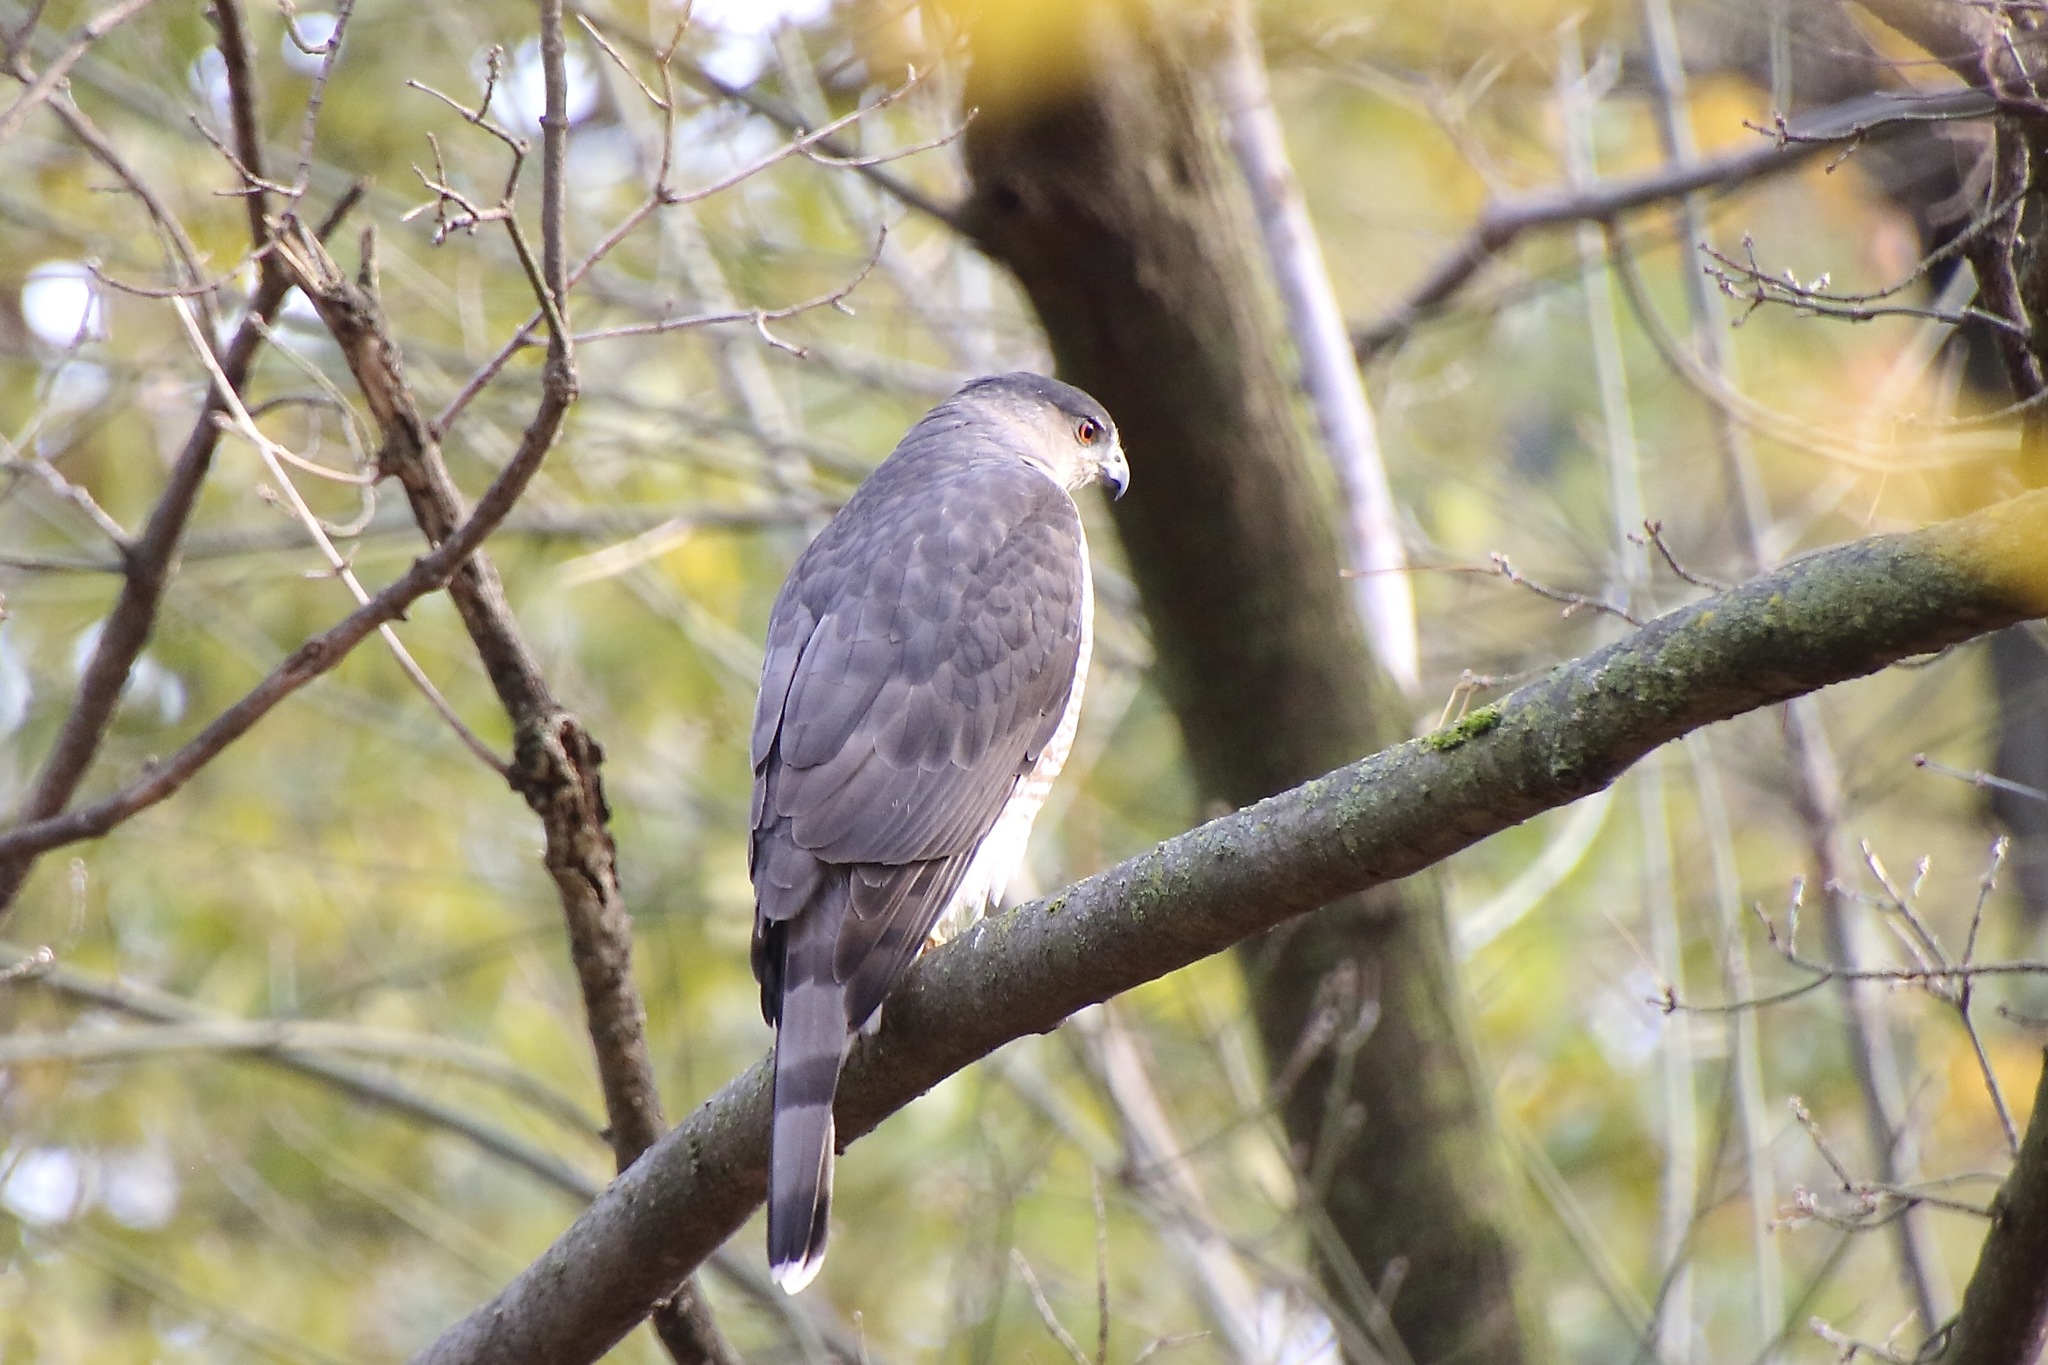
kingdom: Animalia
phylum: Chordata
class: Aves
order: Accipitriformes
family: Accipitridae
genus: Accipiter
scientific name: Accipiter cooperii
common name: Cooper's hawk
